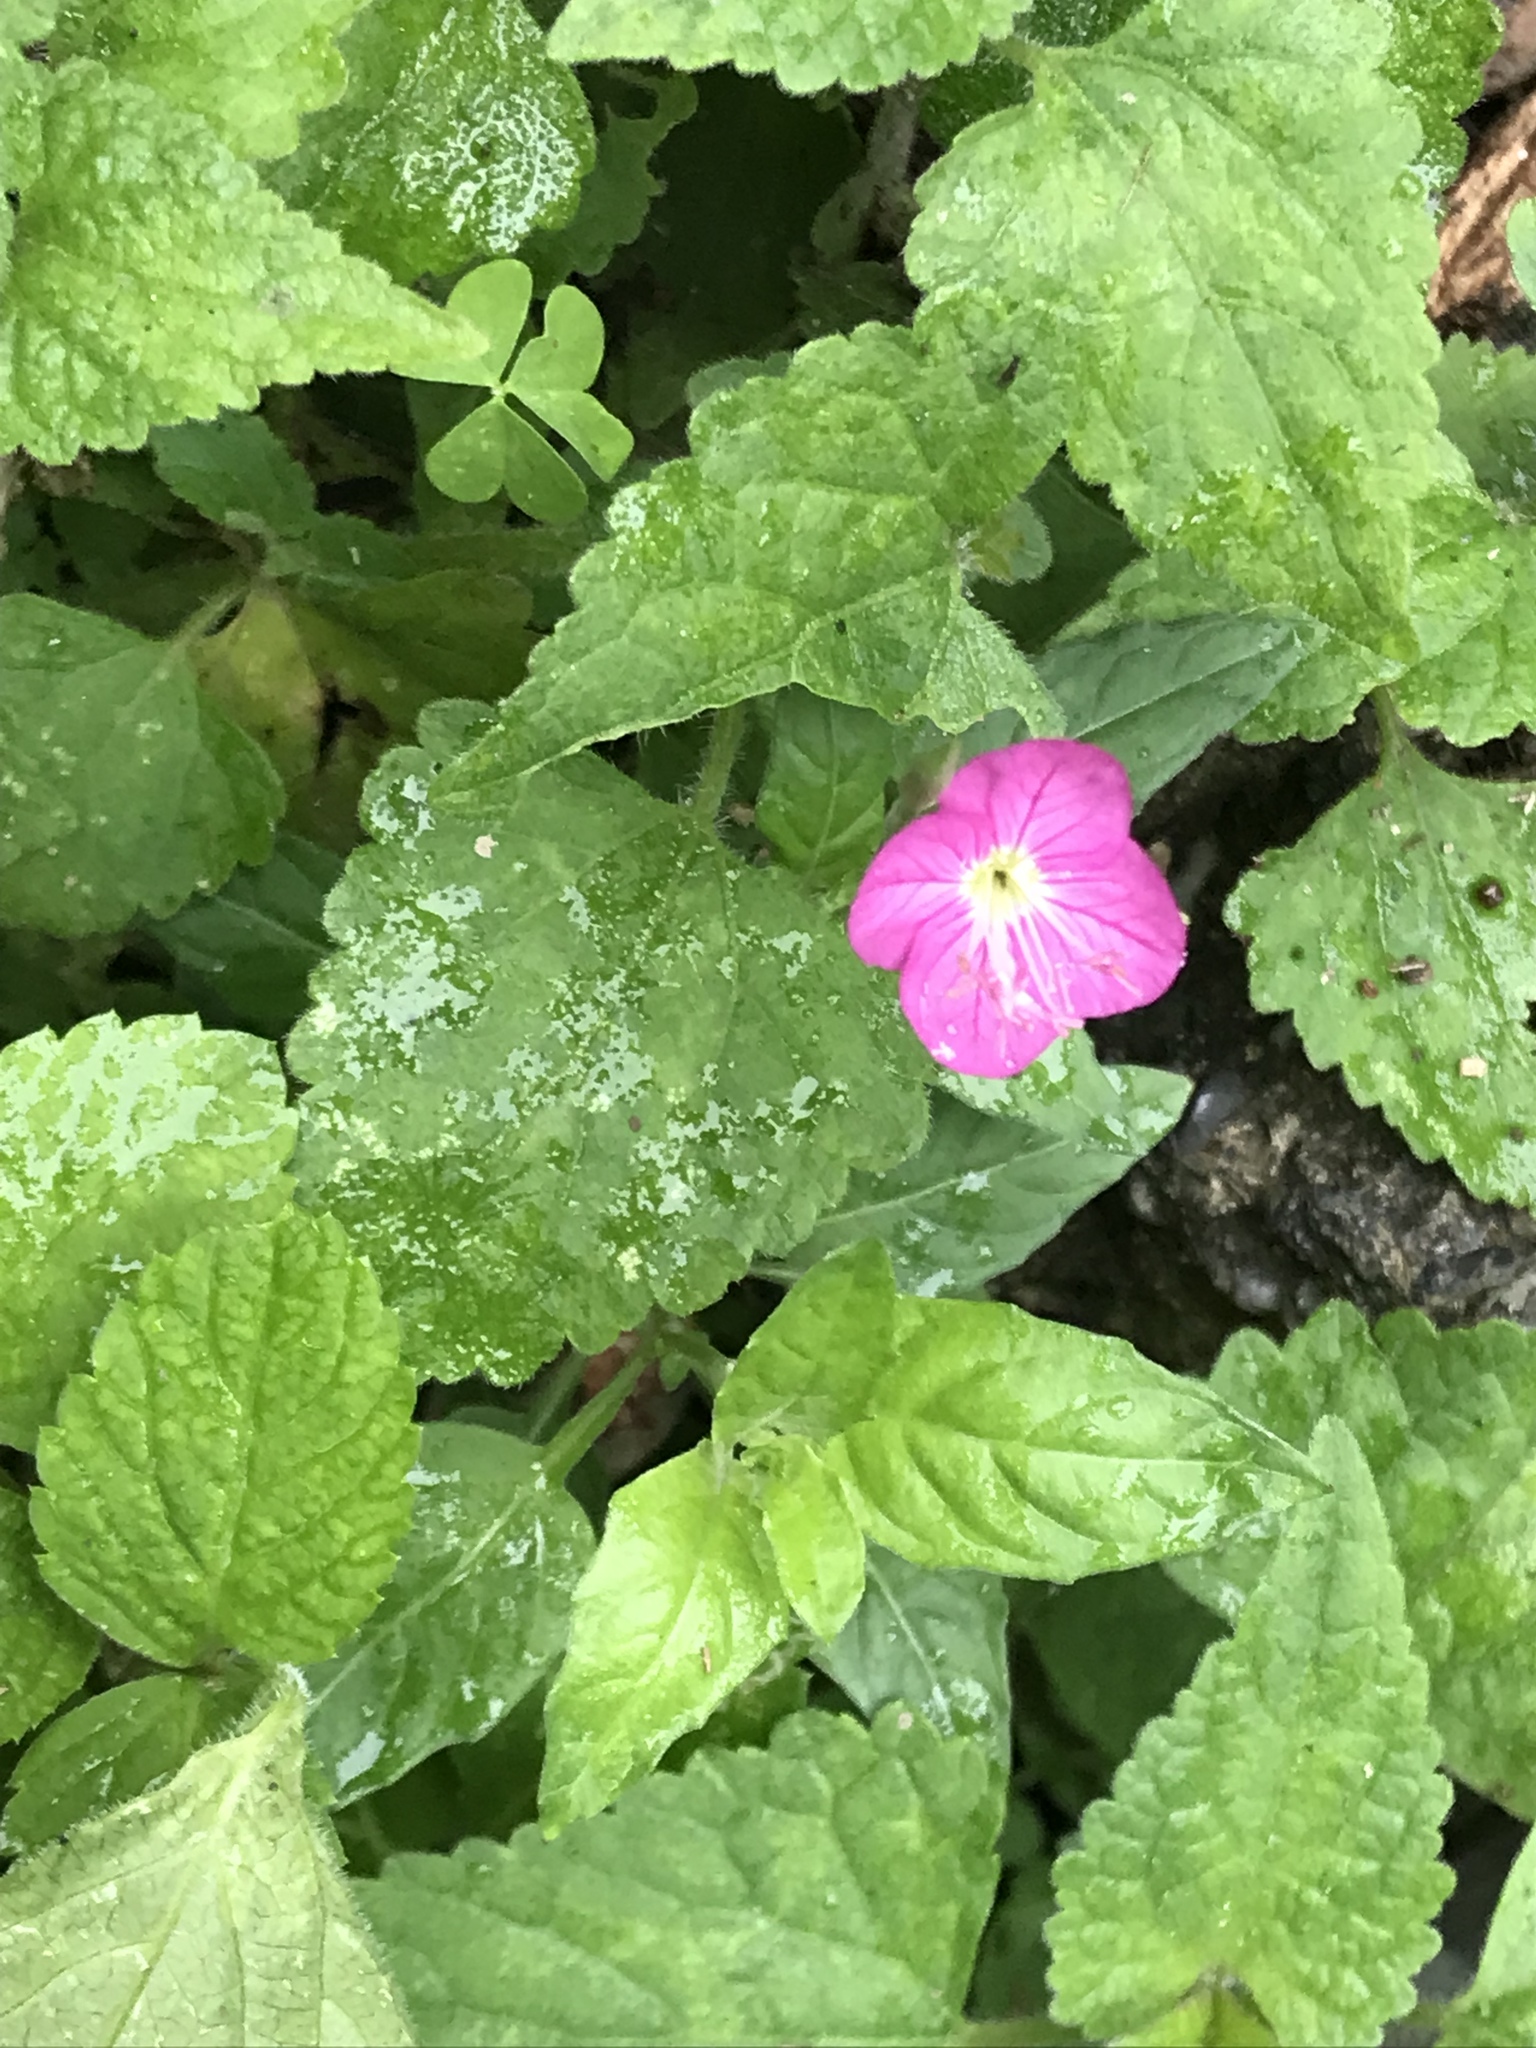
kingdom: Plantae
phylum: Tracheophyta
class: Magnoliopsida
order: Myrtales
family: Onagraceae
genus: Oenothera
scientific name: Oenothera rosea
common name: Rosy evening-primrose
